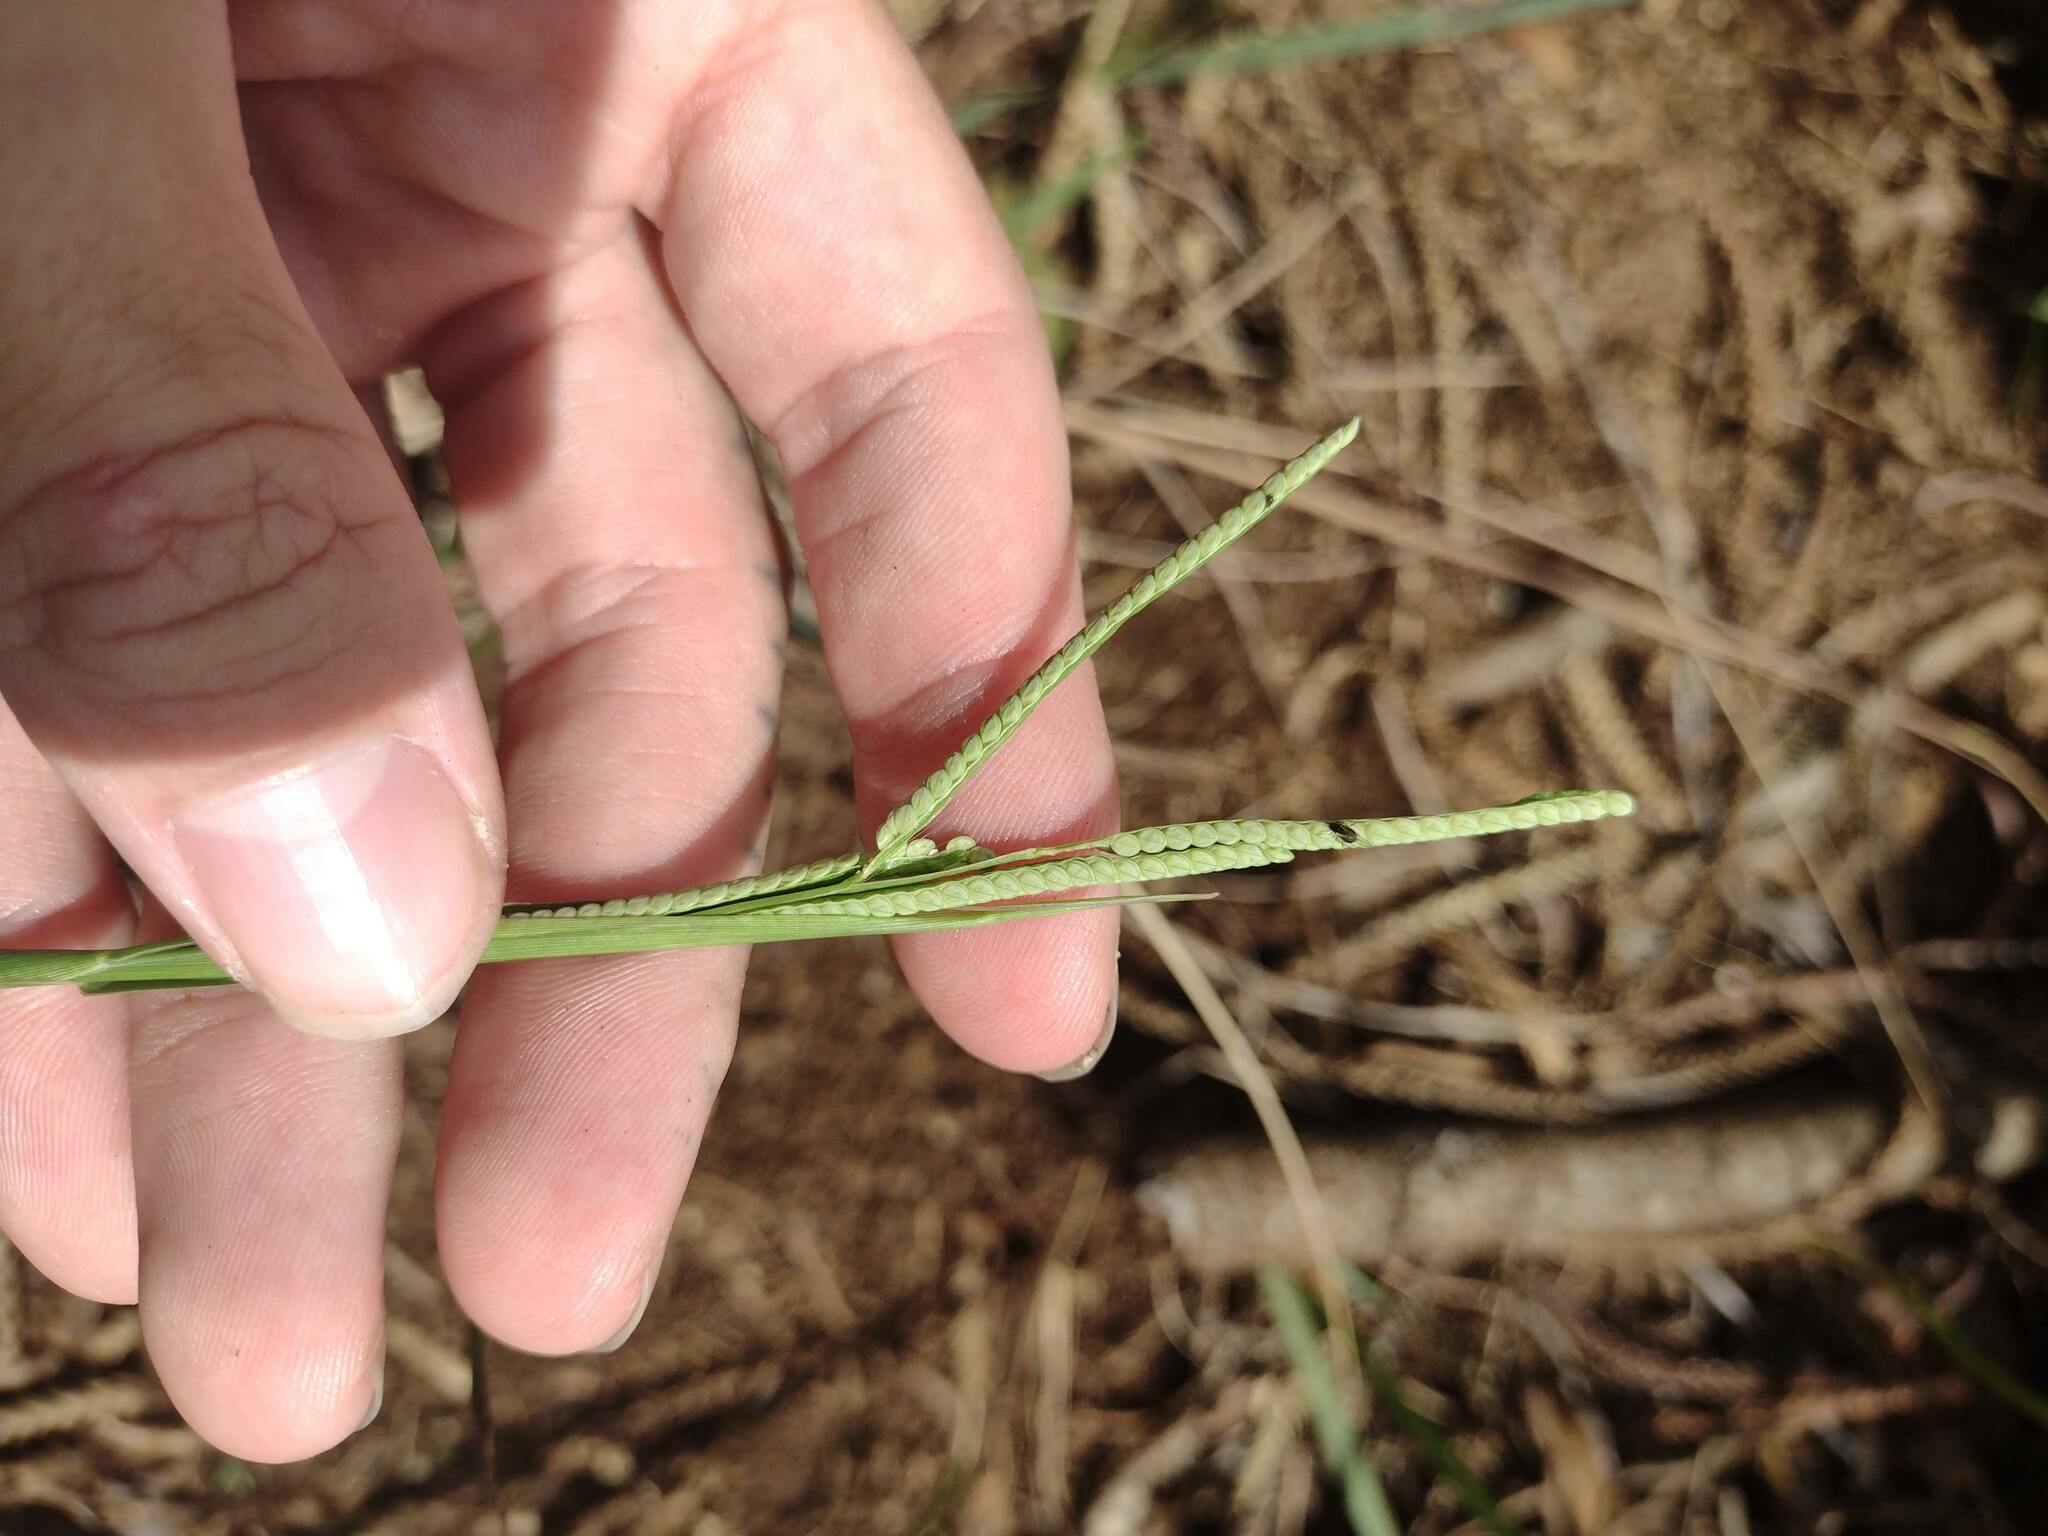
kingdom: Plantae
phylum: Tracheophyta
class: Liliopsida
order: Poales
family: Poaceae
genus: Paspalum
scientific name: Paspalum scrobiculatum
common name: Kodo millet
